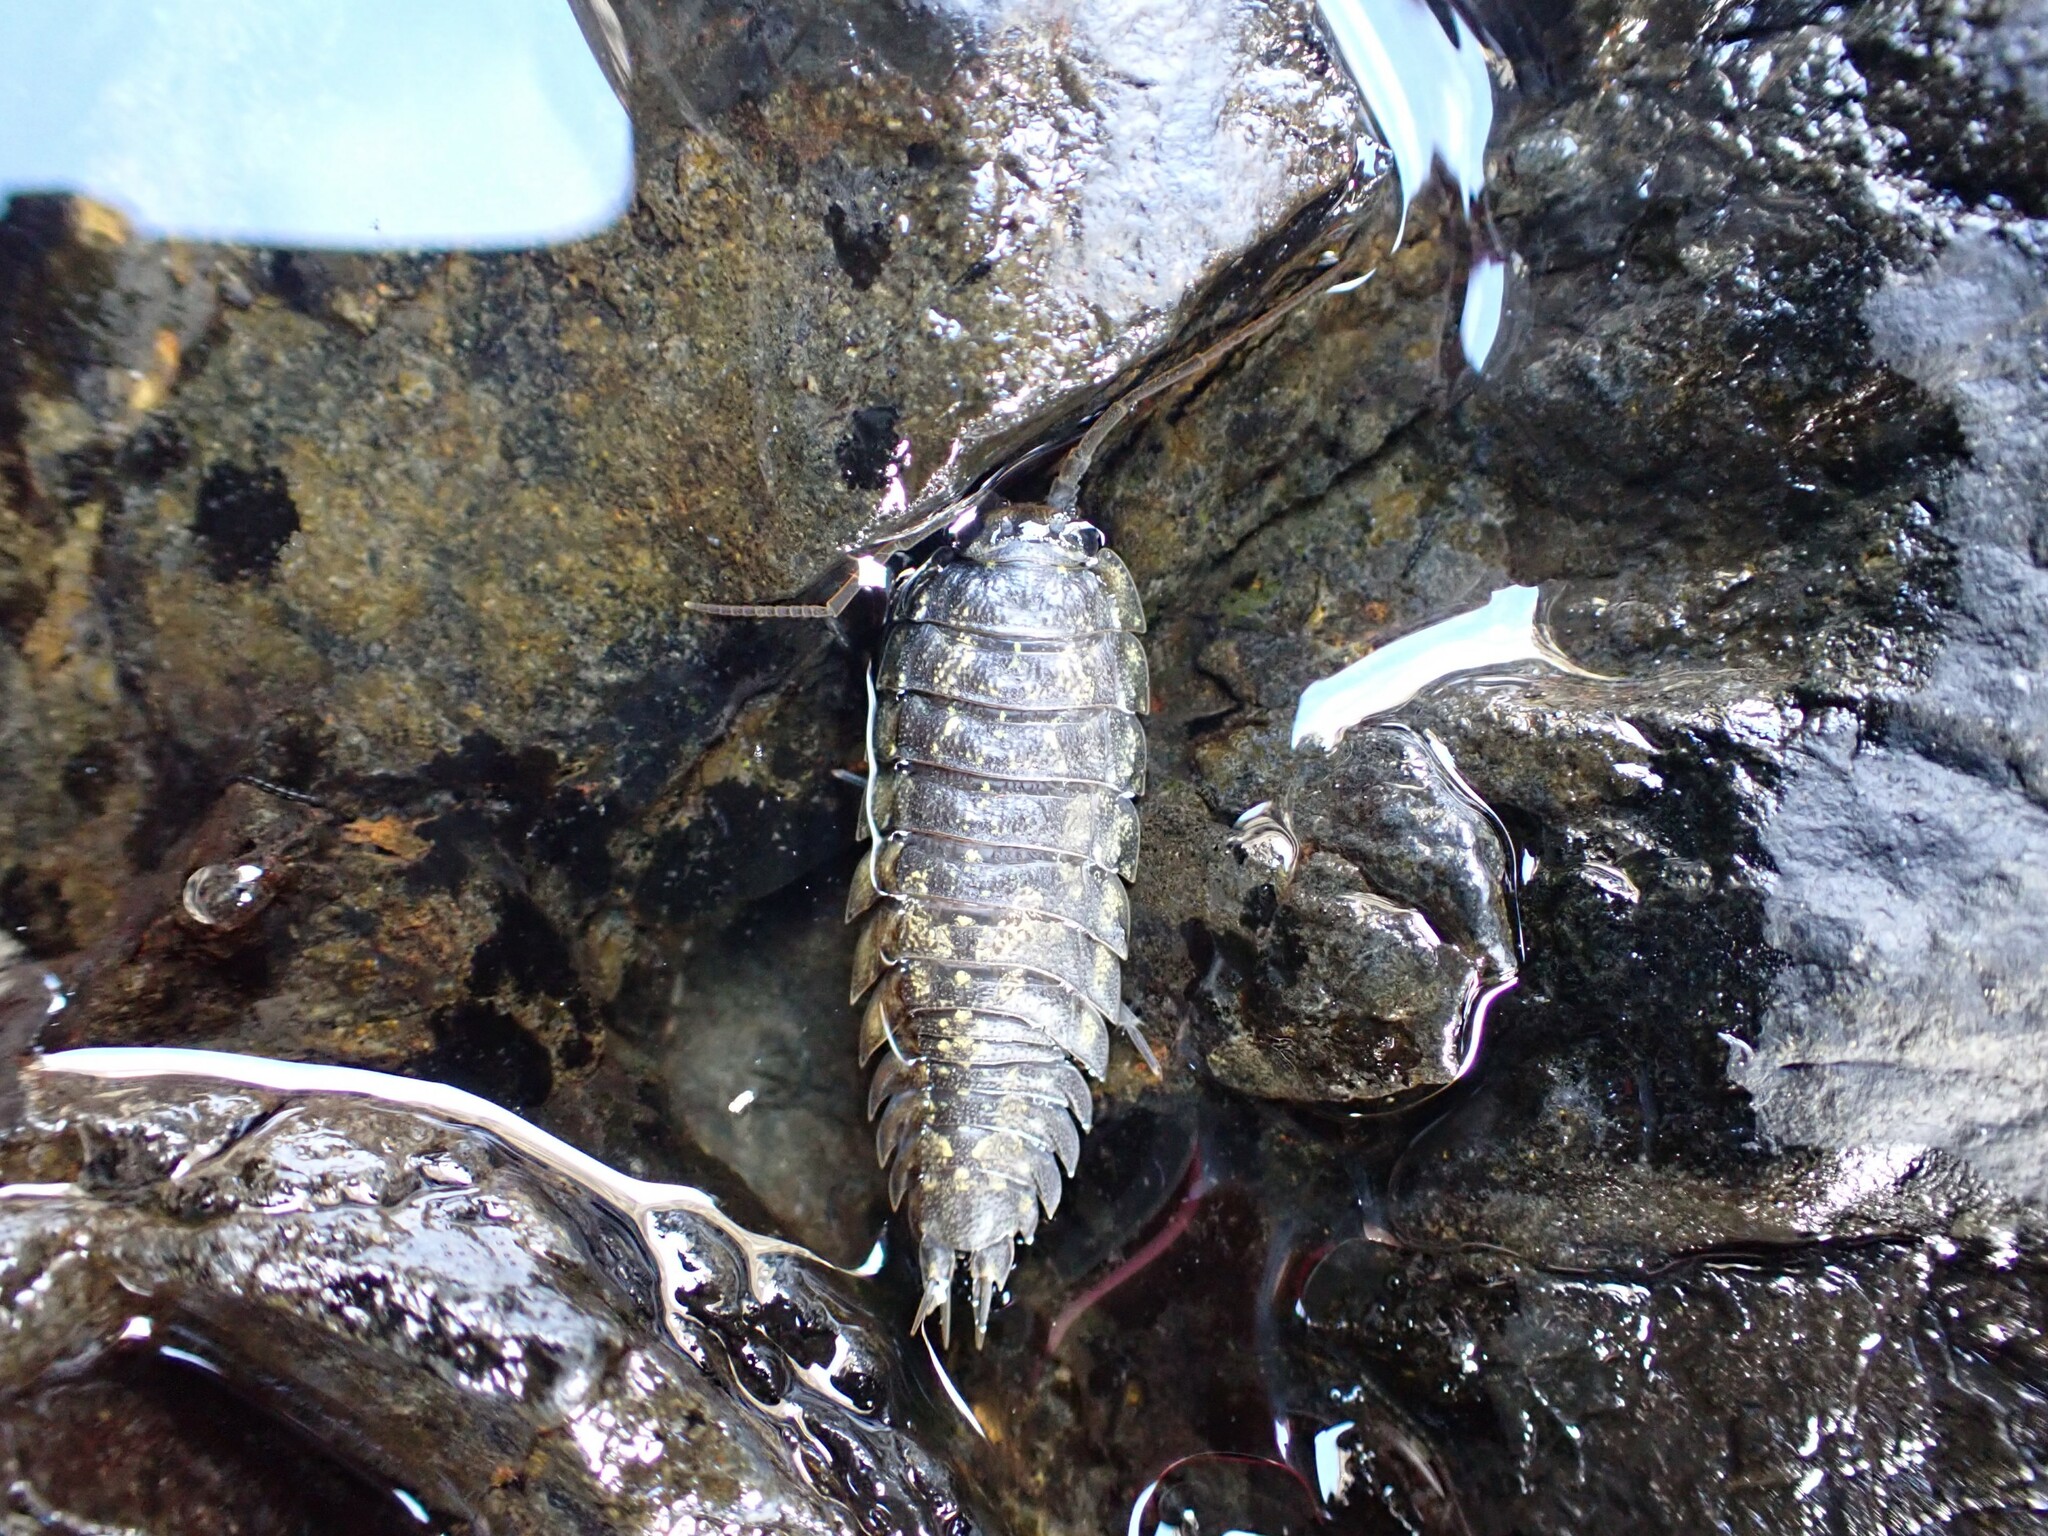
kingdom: Animalia
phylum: Arthropoda
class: Malacostraca
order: Isopoda
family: Ligiidae
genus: Ligia
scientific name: Ligia pallasii
